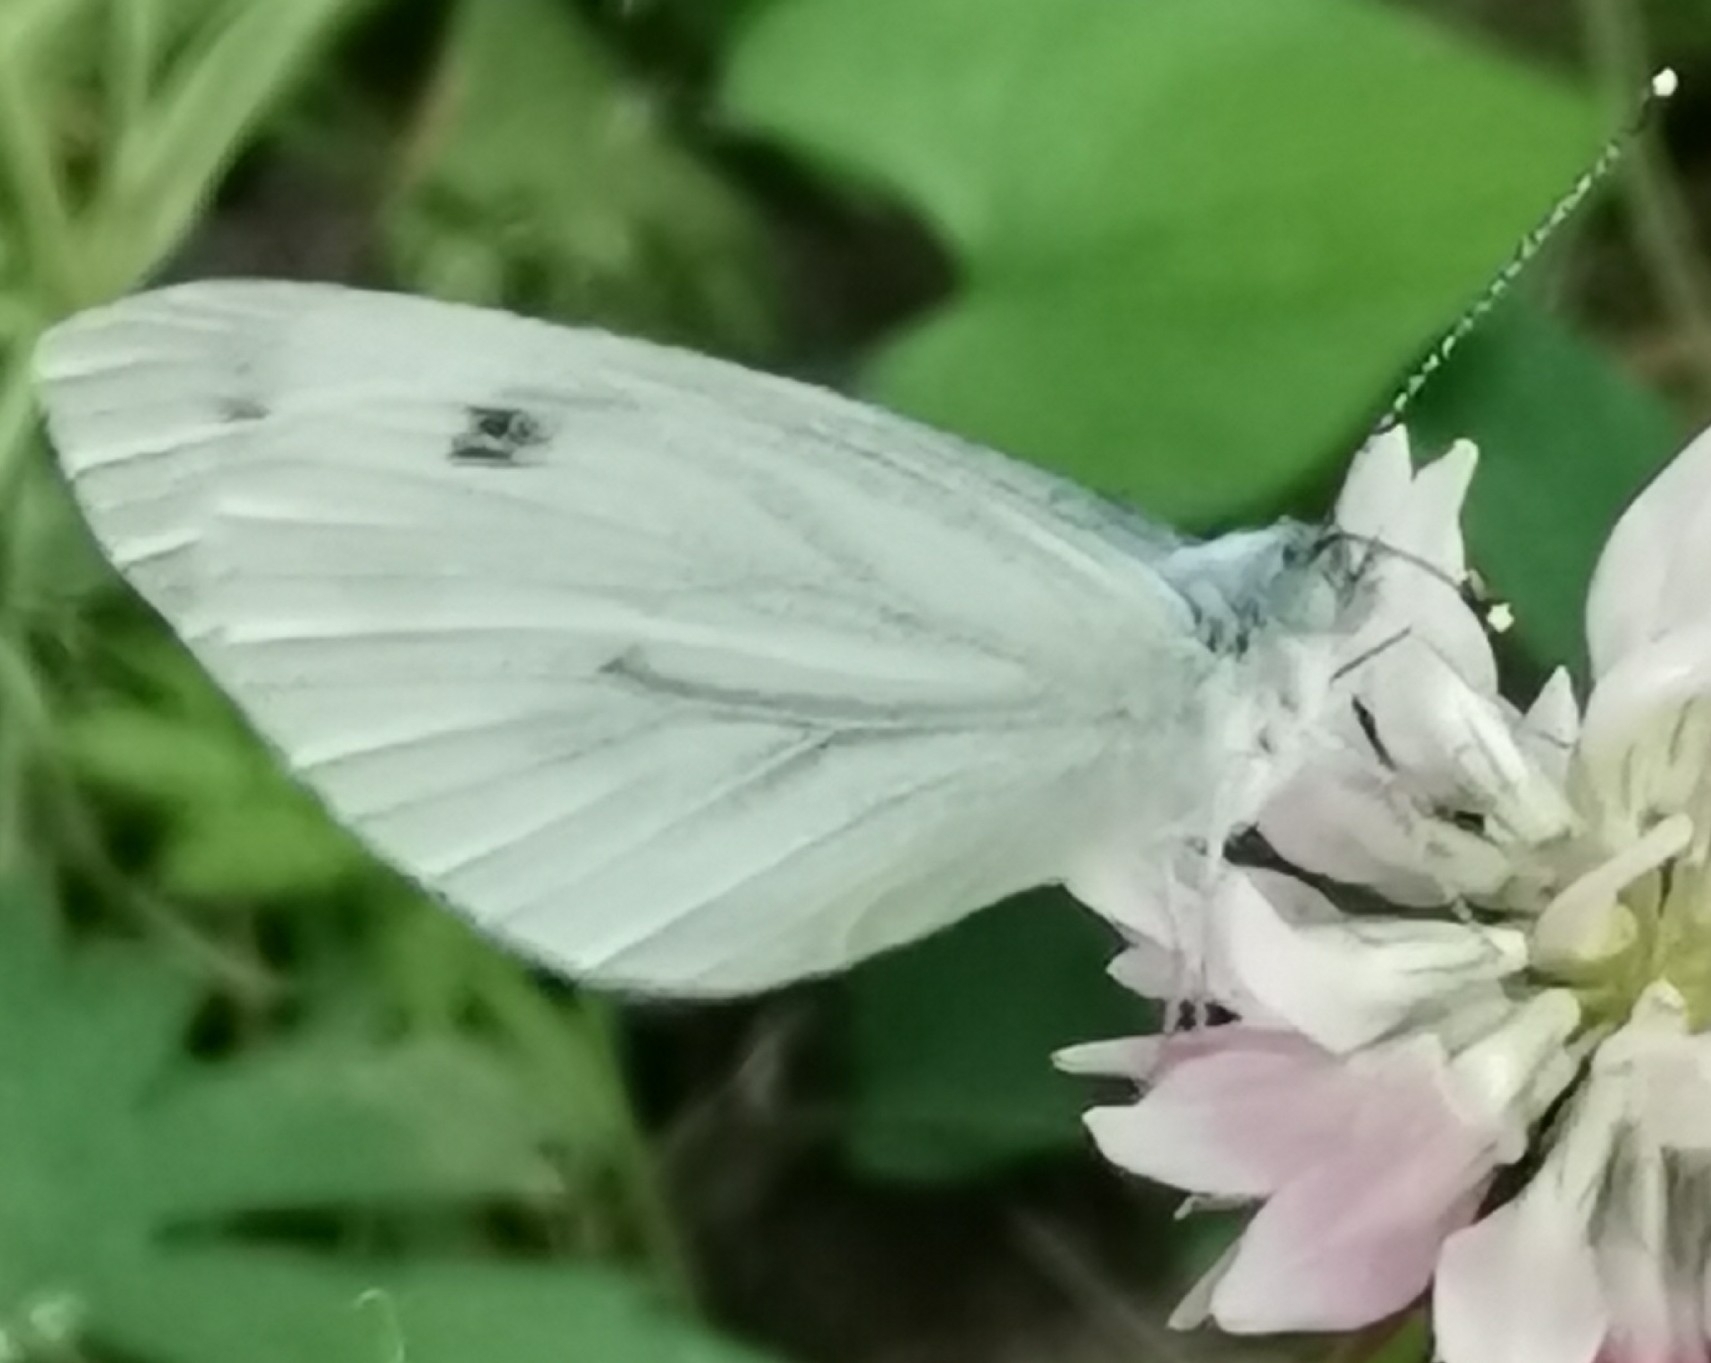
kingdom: Animalia
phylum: Arthropoda
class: Insecta
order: Lepidoptera
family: Pieridae
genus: Pieris
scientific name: Pieris napi
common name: Green-veined white
